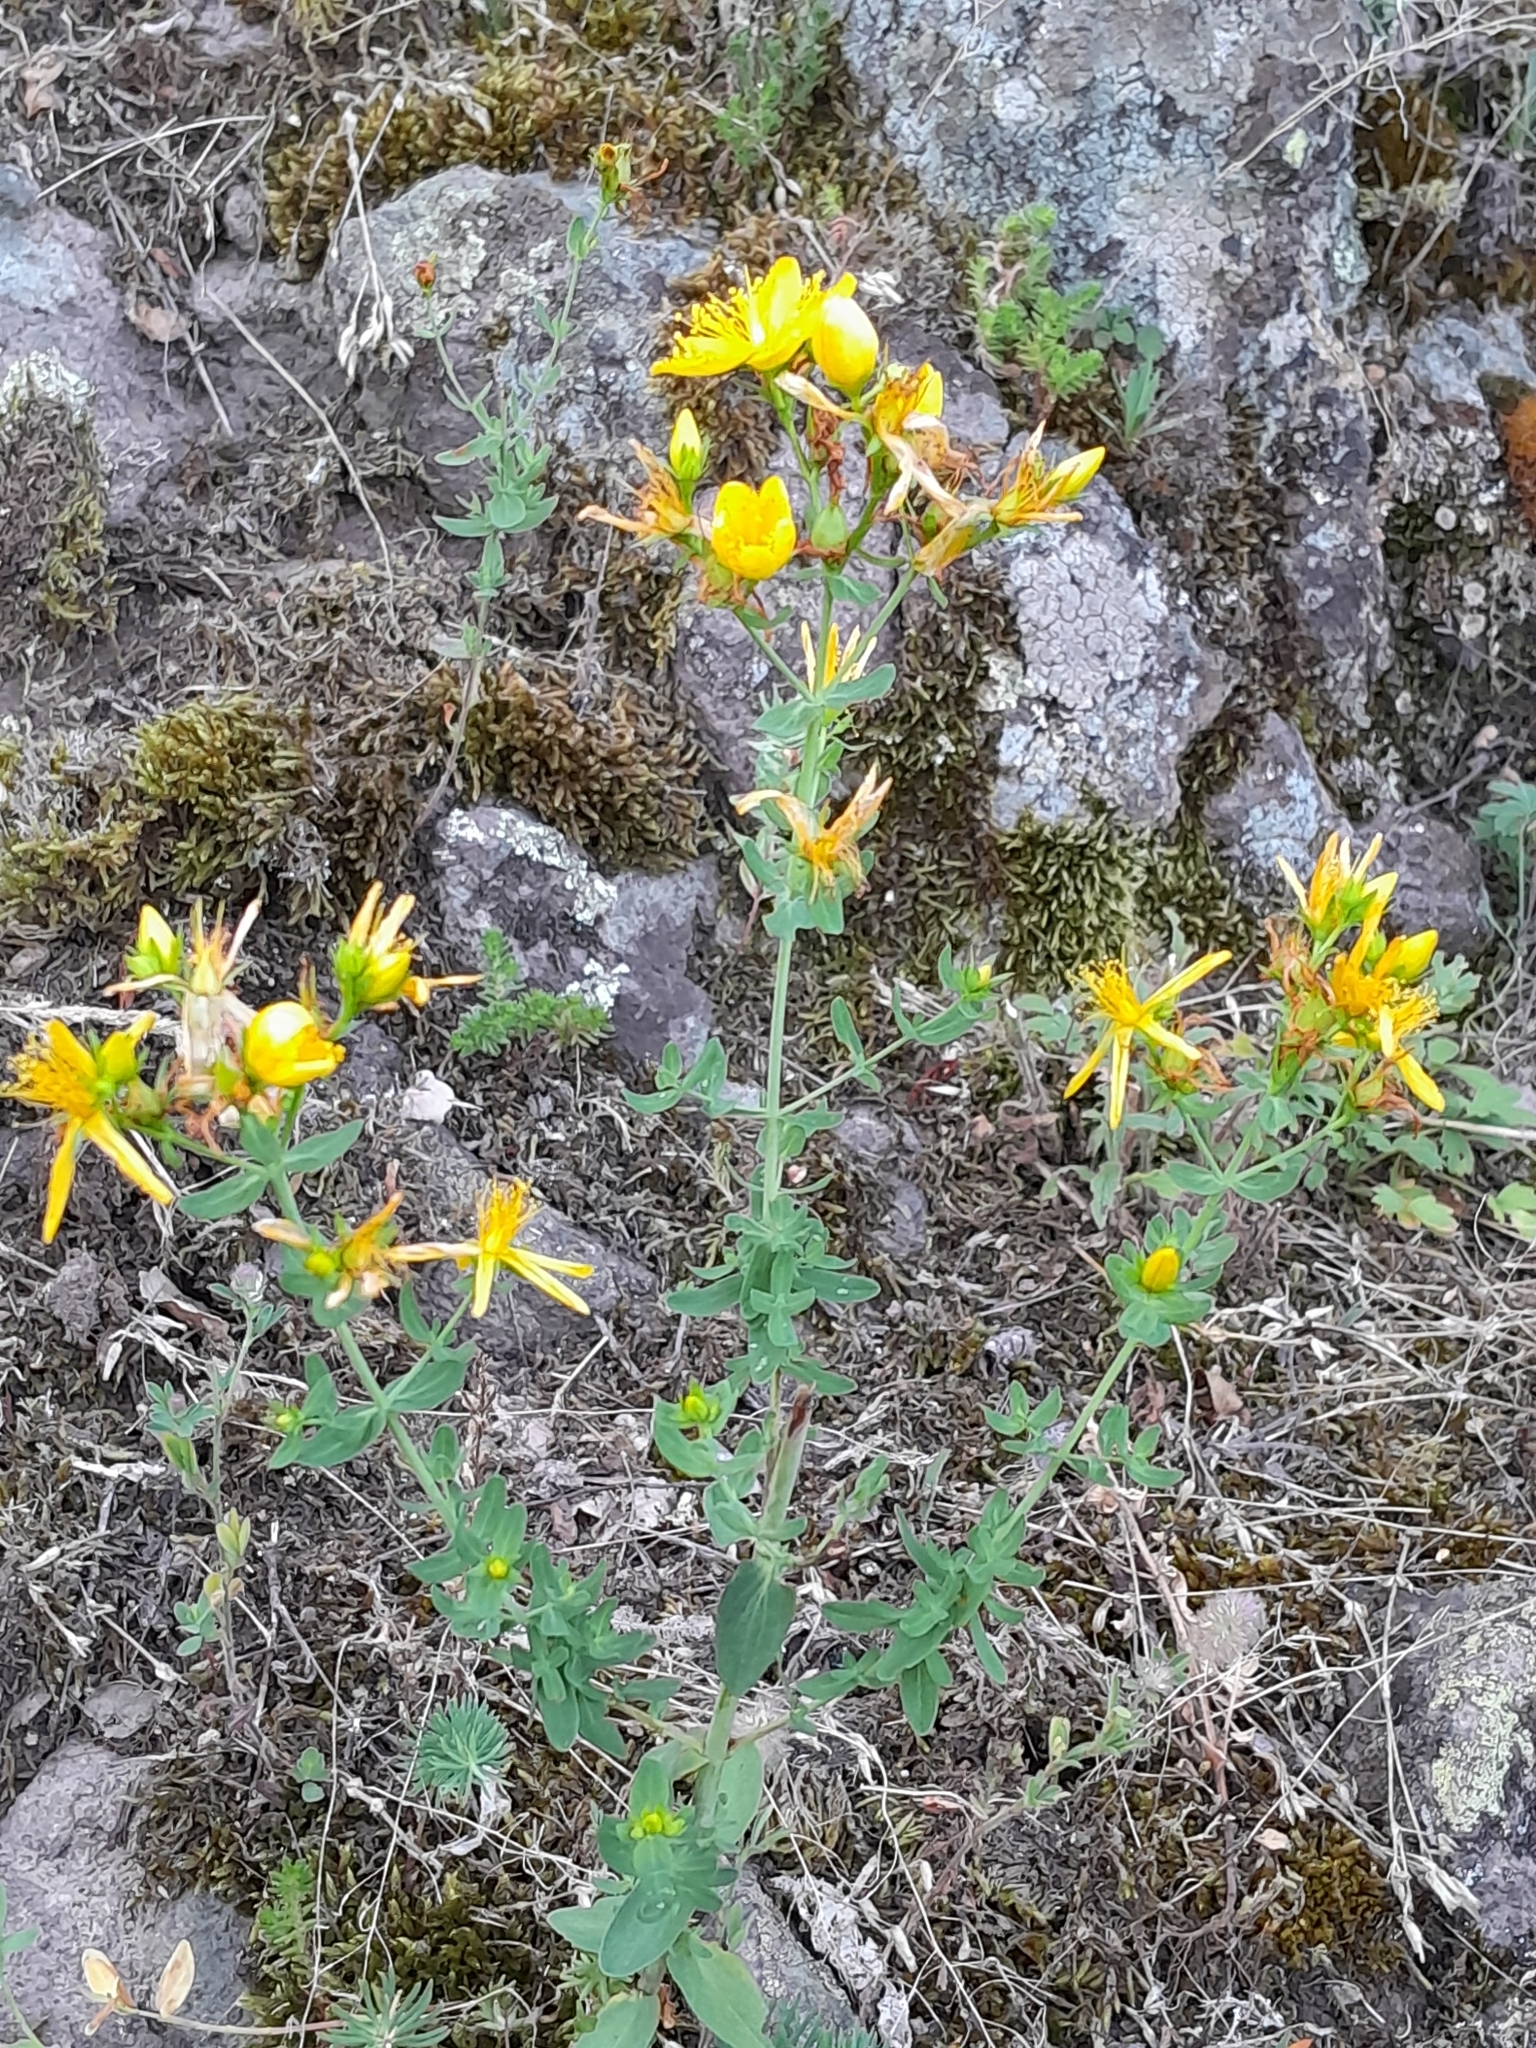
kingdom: Plantae
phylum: Tracheophyta
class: Magnoliopsida
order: Malpighiales
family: Hypericaceae
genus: Hypericum
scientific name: Hypericum perforatum
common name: Common st. johnswort
